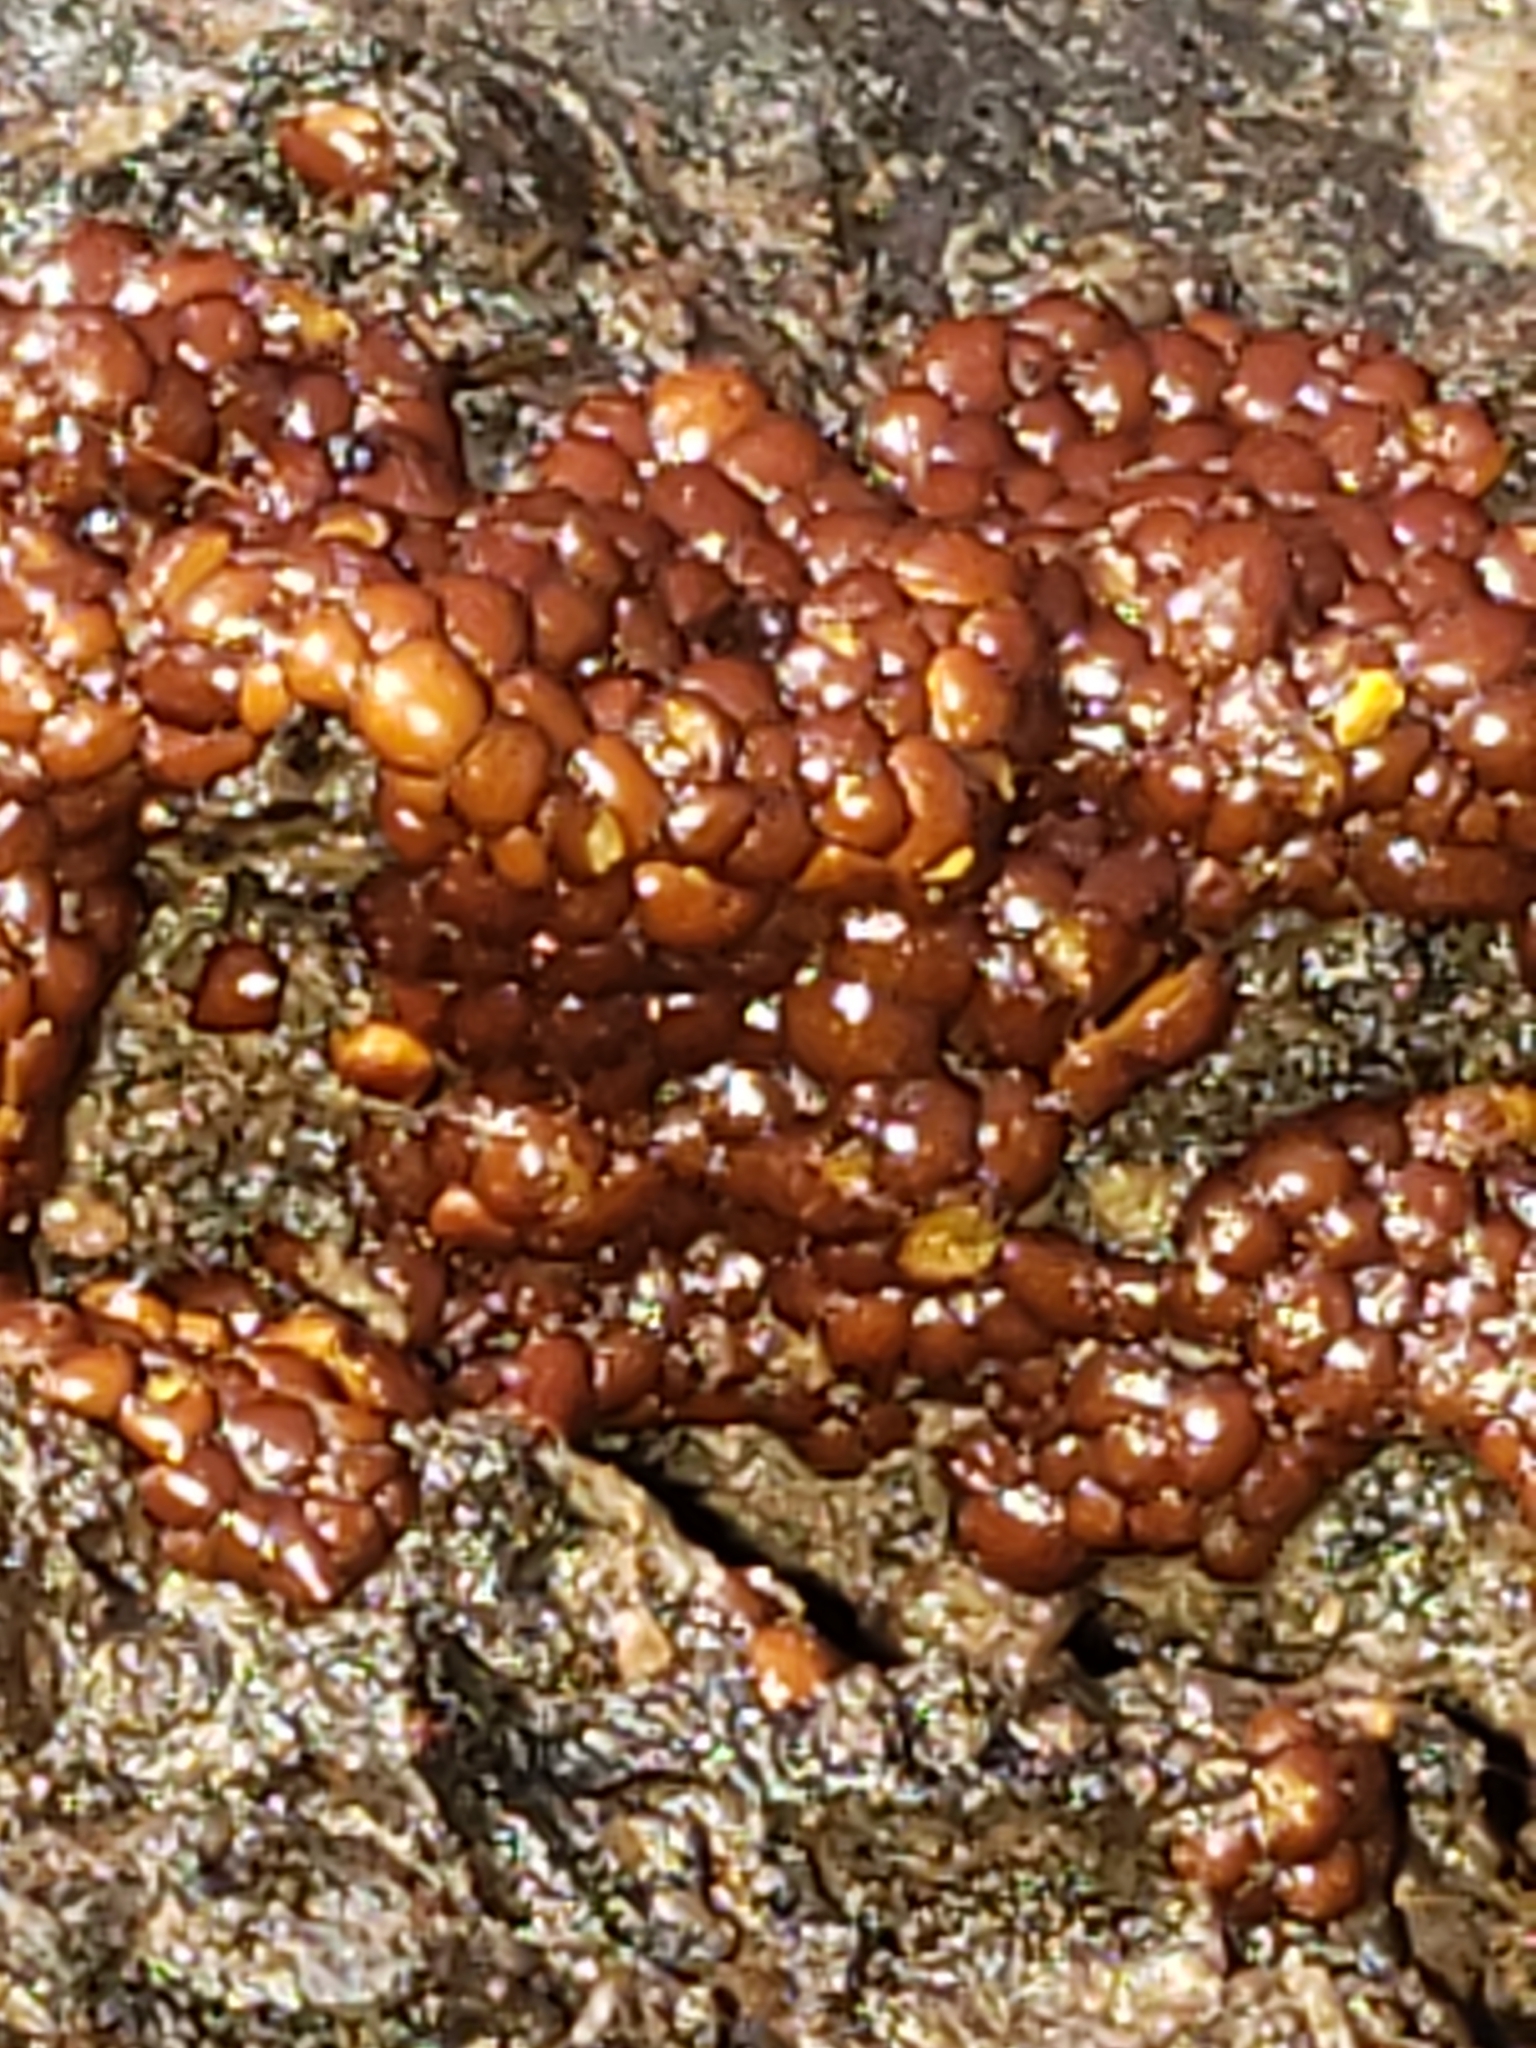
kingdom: Protozoa
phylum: Mycetozoa
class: Myxomycetes
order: Trichiales
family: Trichiaceae
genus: Perichaena
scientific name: Perichaena depressa
